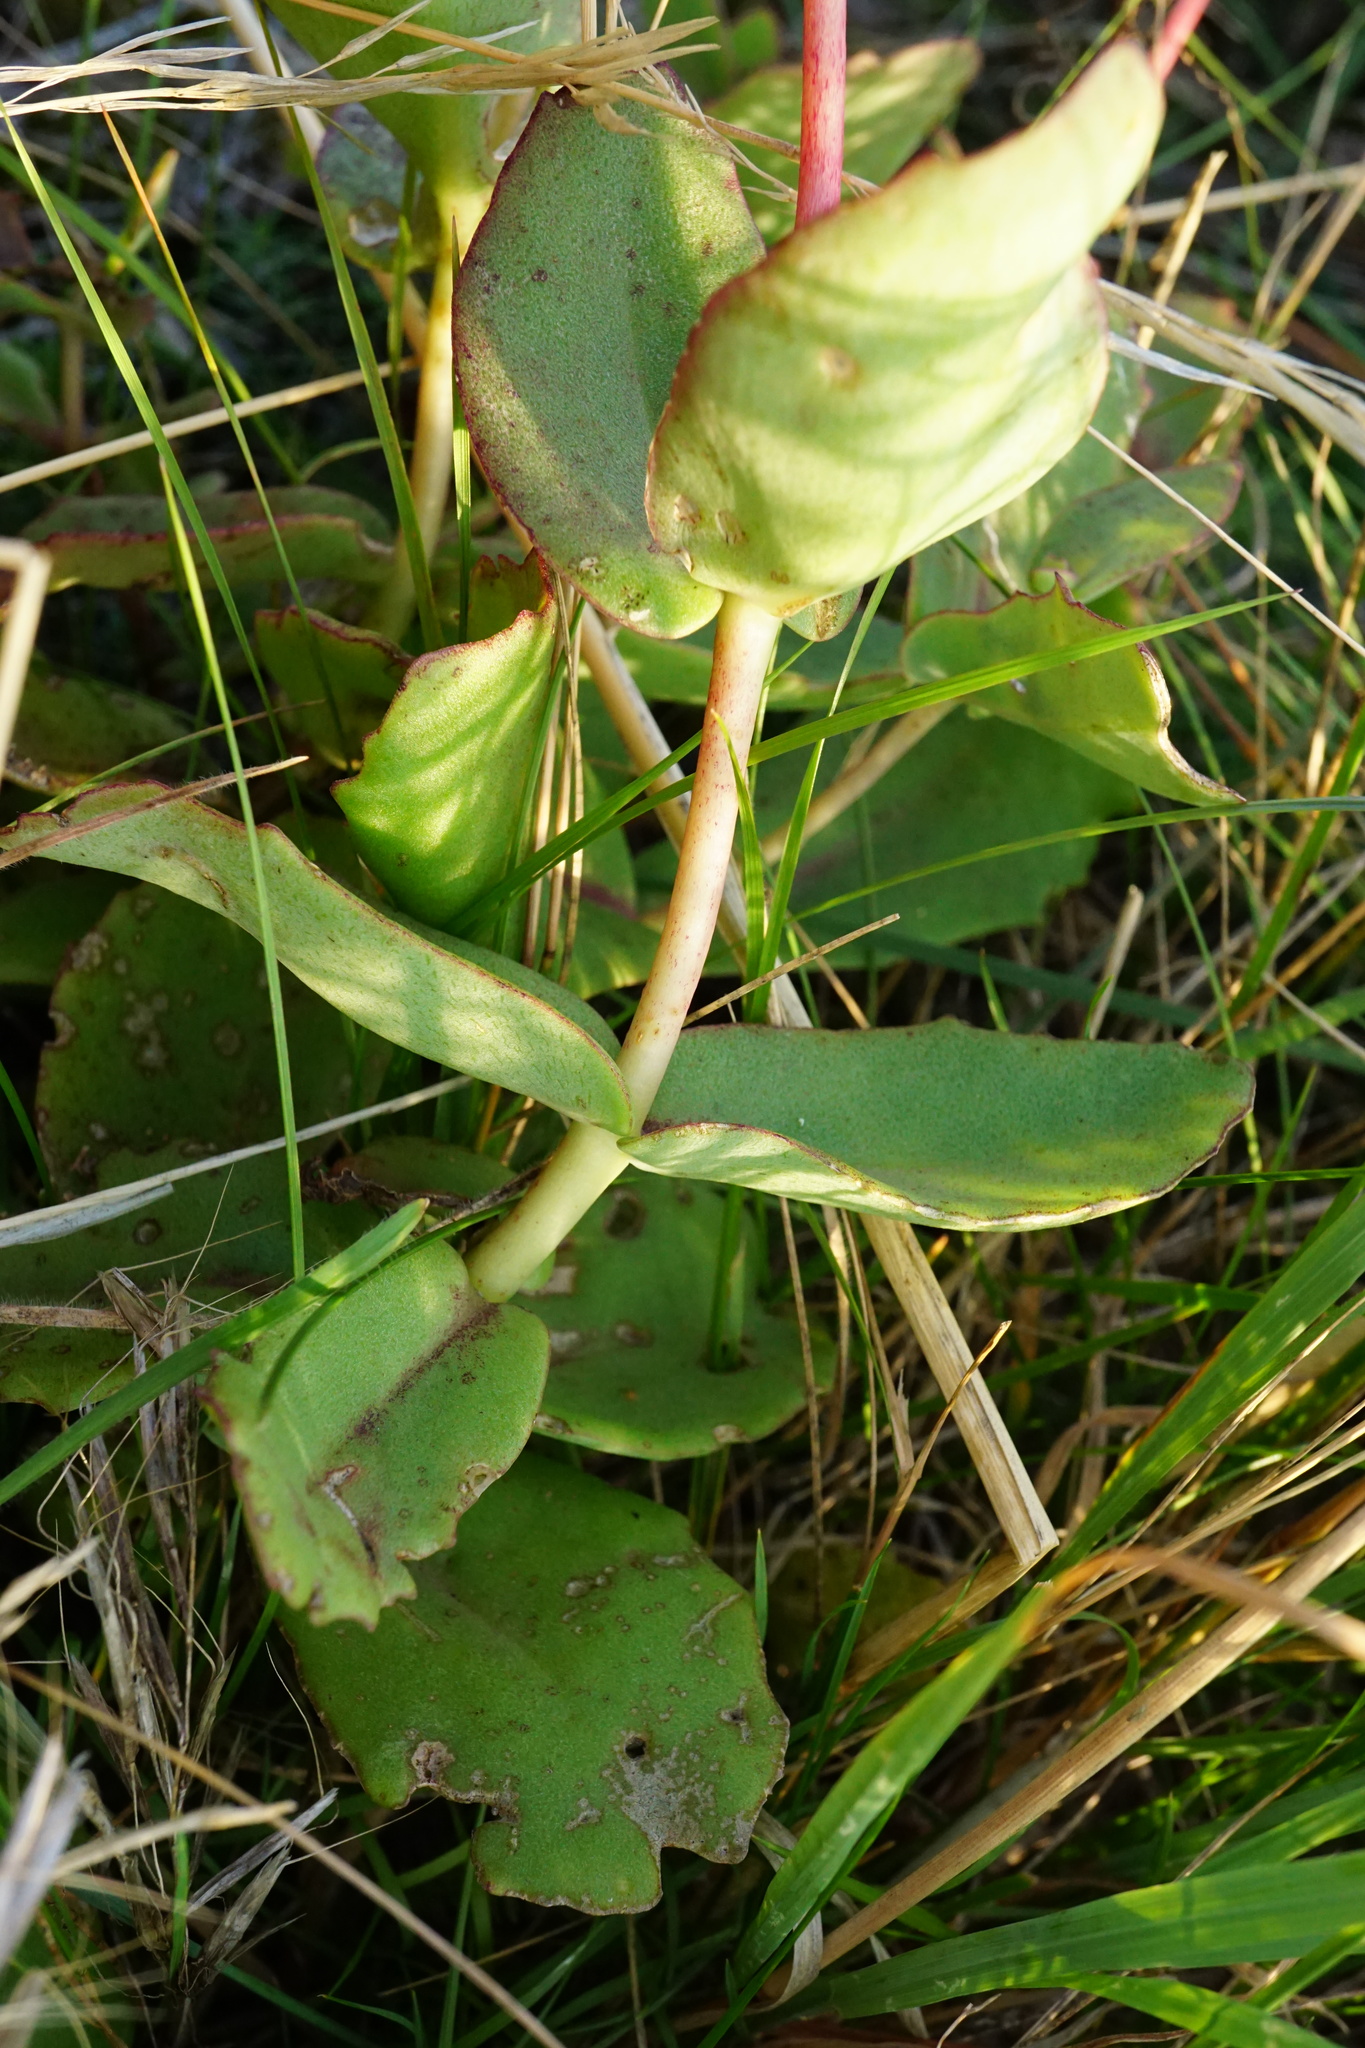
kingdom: Plantae
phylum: Tracheophyta
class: Magnoliopsida
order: Saxifragales
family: Crassulaceae
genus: Hylotelephium
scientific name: Hylotelephium maximum
